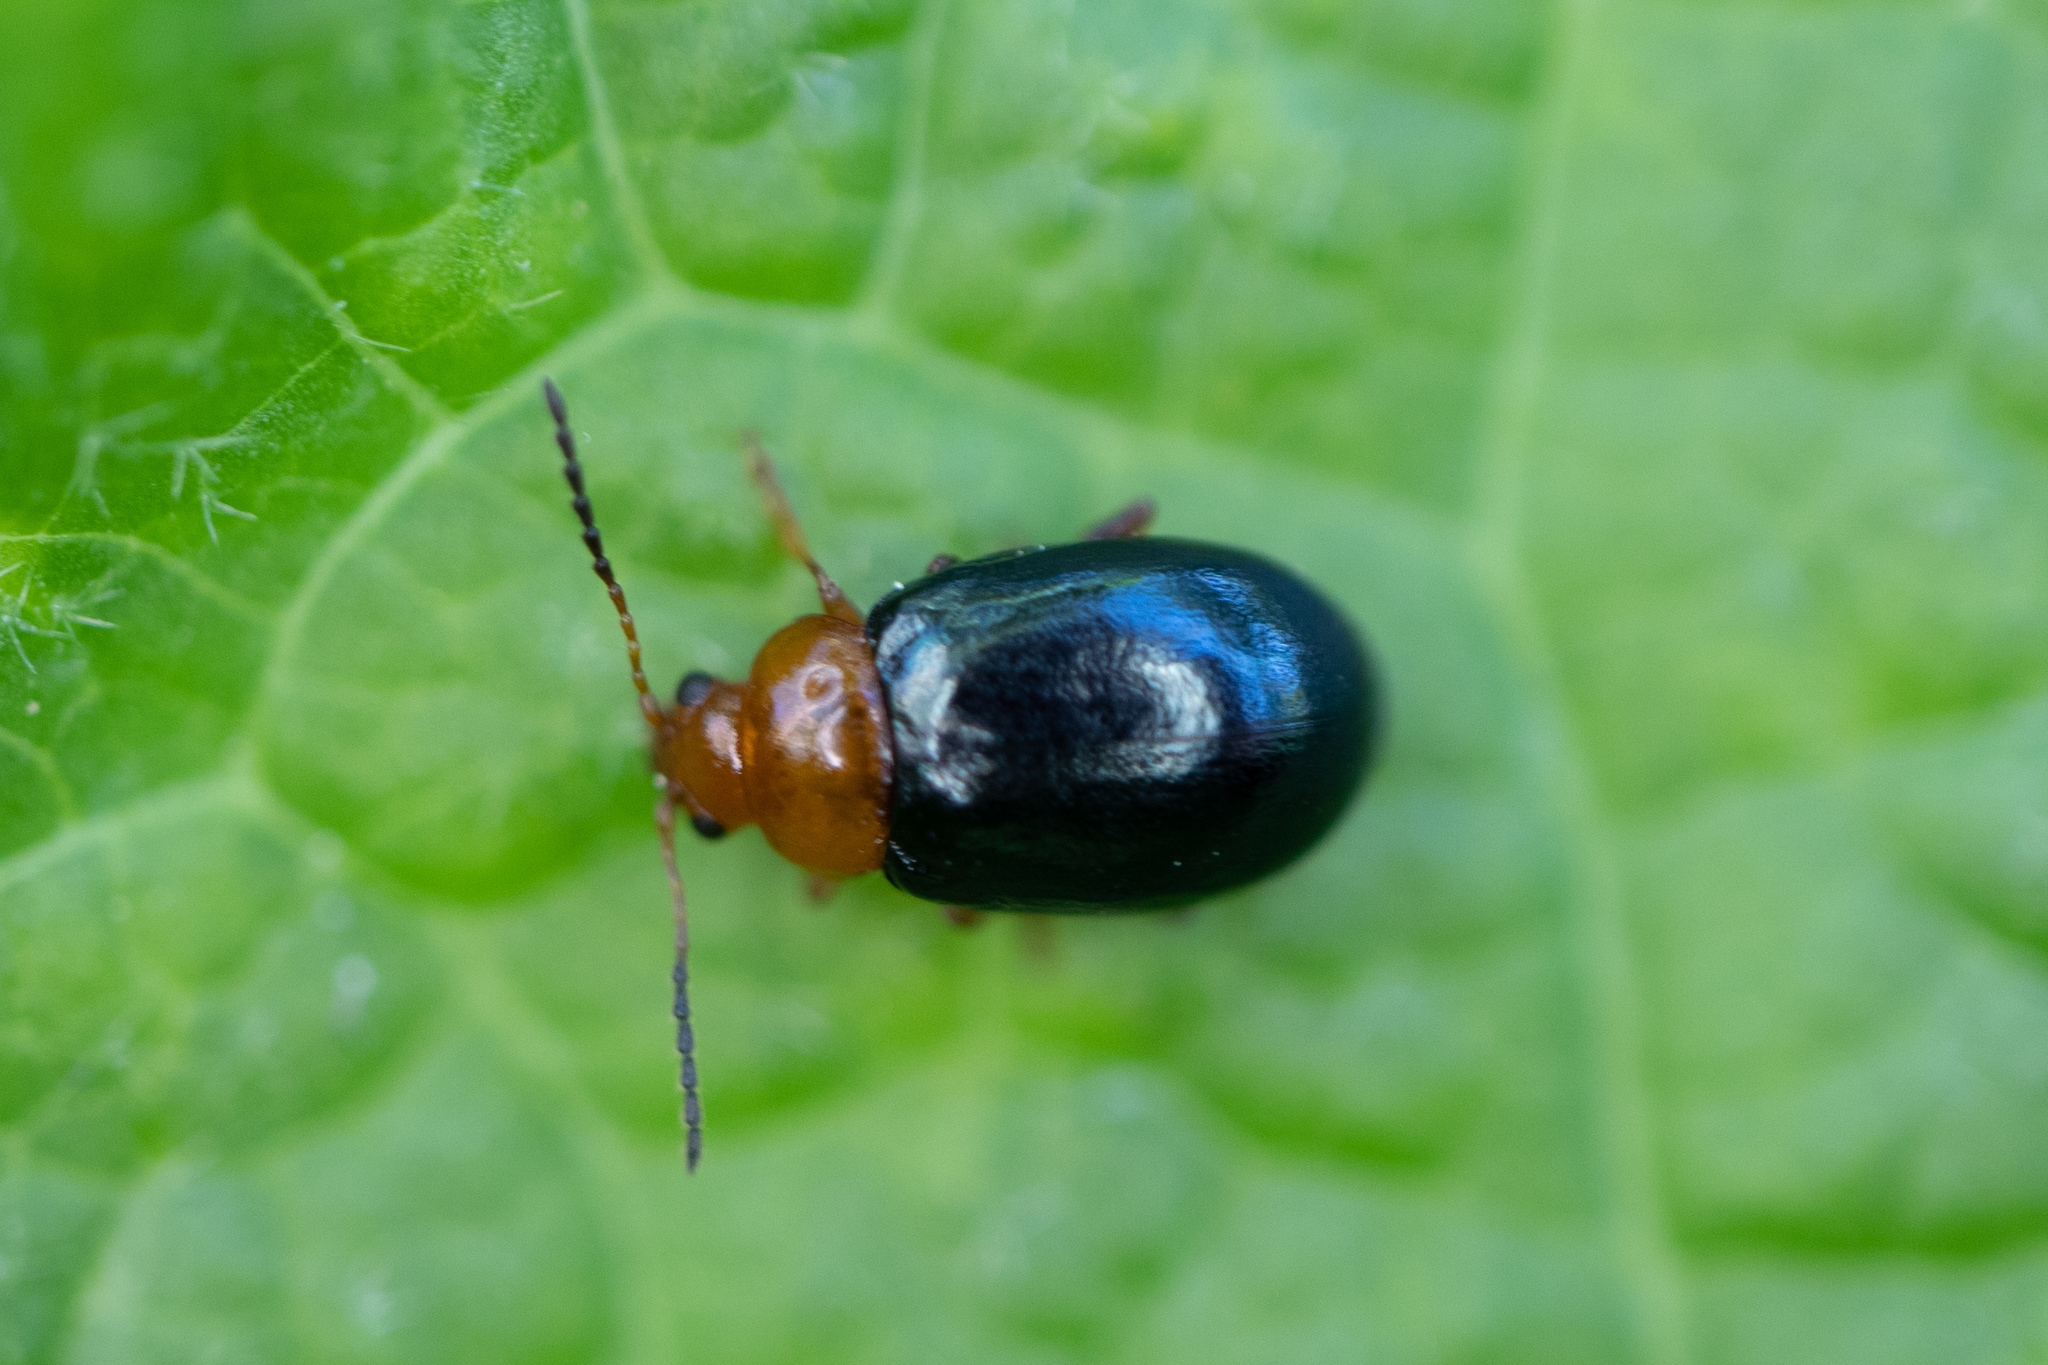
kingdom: Animalia
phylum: Arthropoda
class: Insecta
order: Coleoptera
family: Chrysomelidae
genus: Podagrica
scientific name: Podagrica fuscicornis
